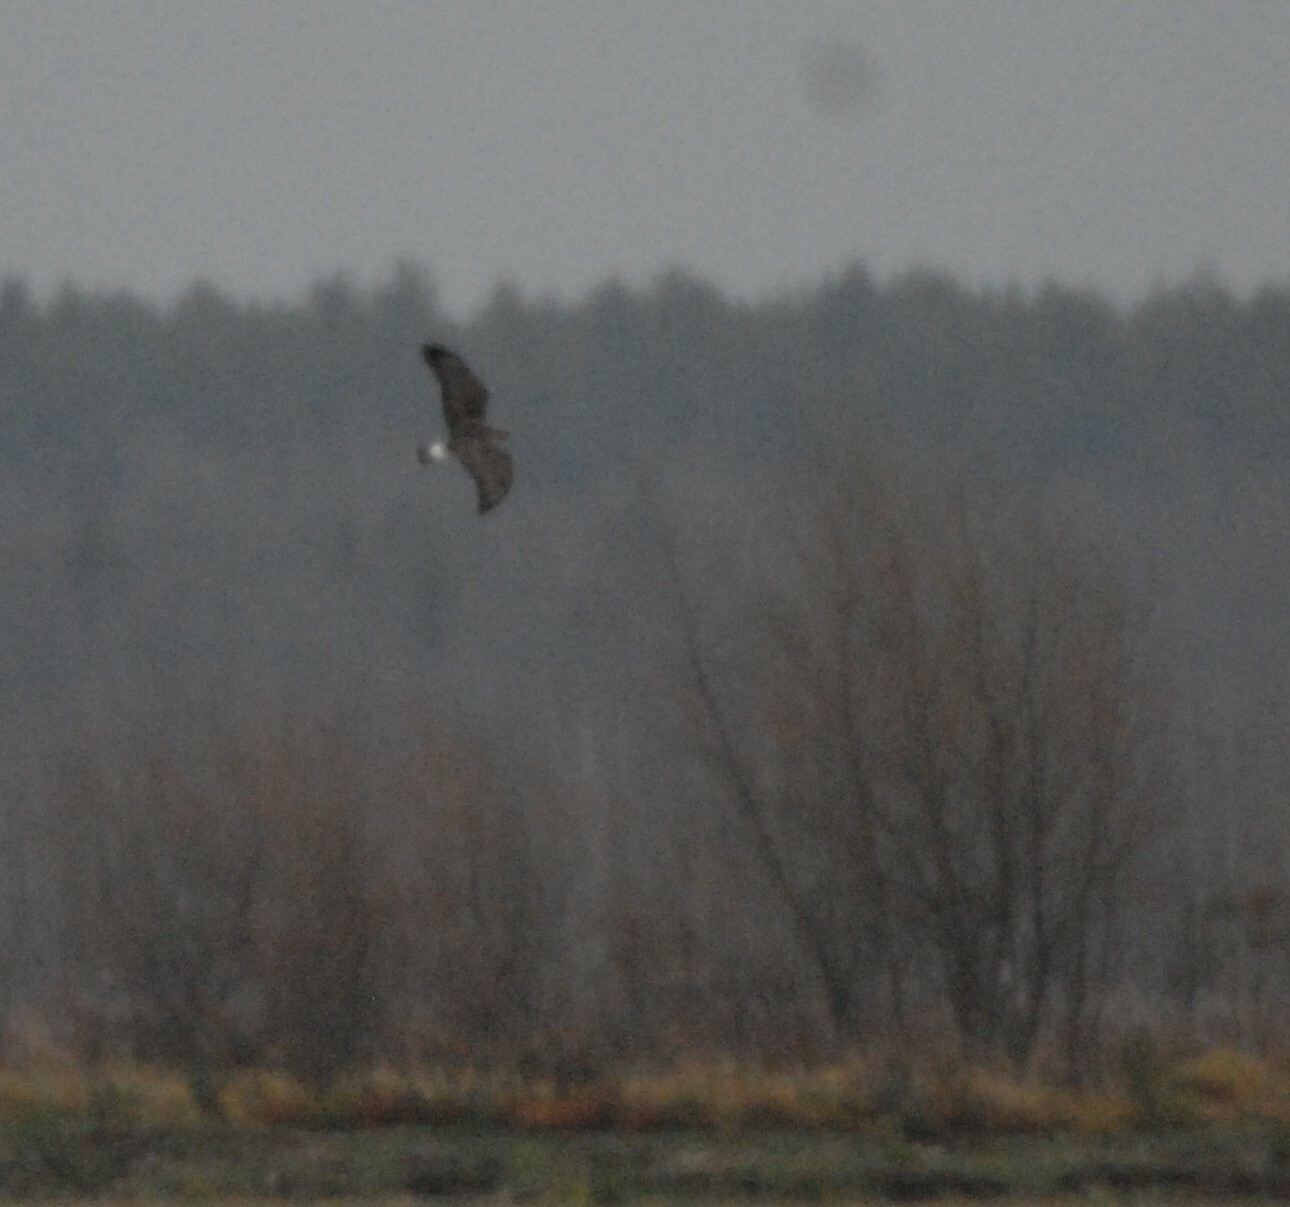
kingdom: Animalia
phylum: Chordata
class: Aves
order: Accipitriformes
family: Accipitridae
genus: Buteo
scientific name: Buteo lagopus
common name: Rough-legged buzzard
